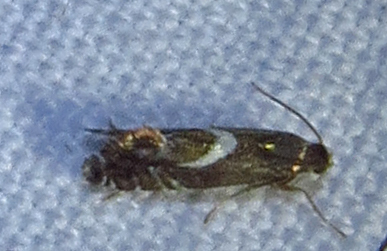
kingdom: Animalia
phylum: Arthropoda
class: Insecta
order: Lepidoptera
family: Glyphipterigidae
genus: Glyphipterix
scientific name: Glyphipterix Diploschizia impigritella
